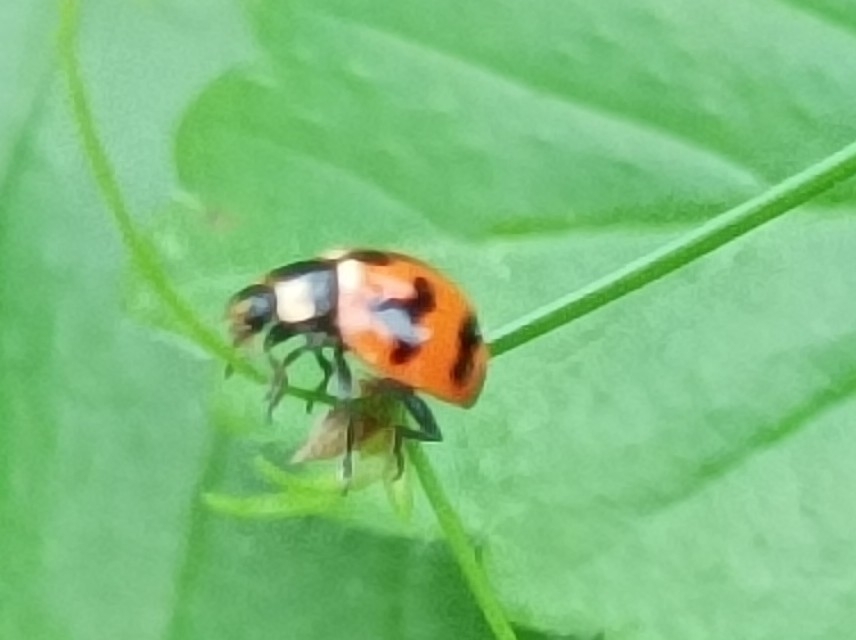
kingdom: Animalia
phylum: Arthropoda
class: Insecta
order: Coleoptera
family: Coccinellidae
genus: Coccinella
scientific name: Coccinella transversalis
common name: Transverse lady beetle
